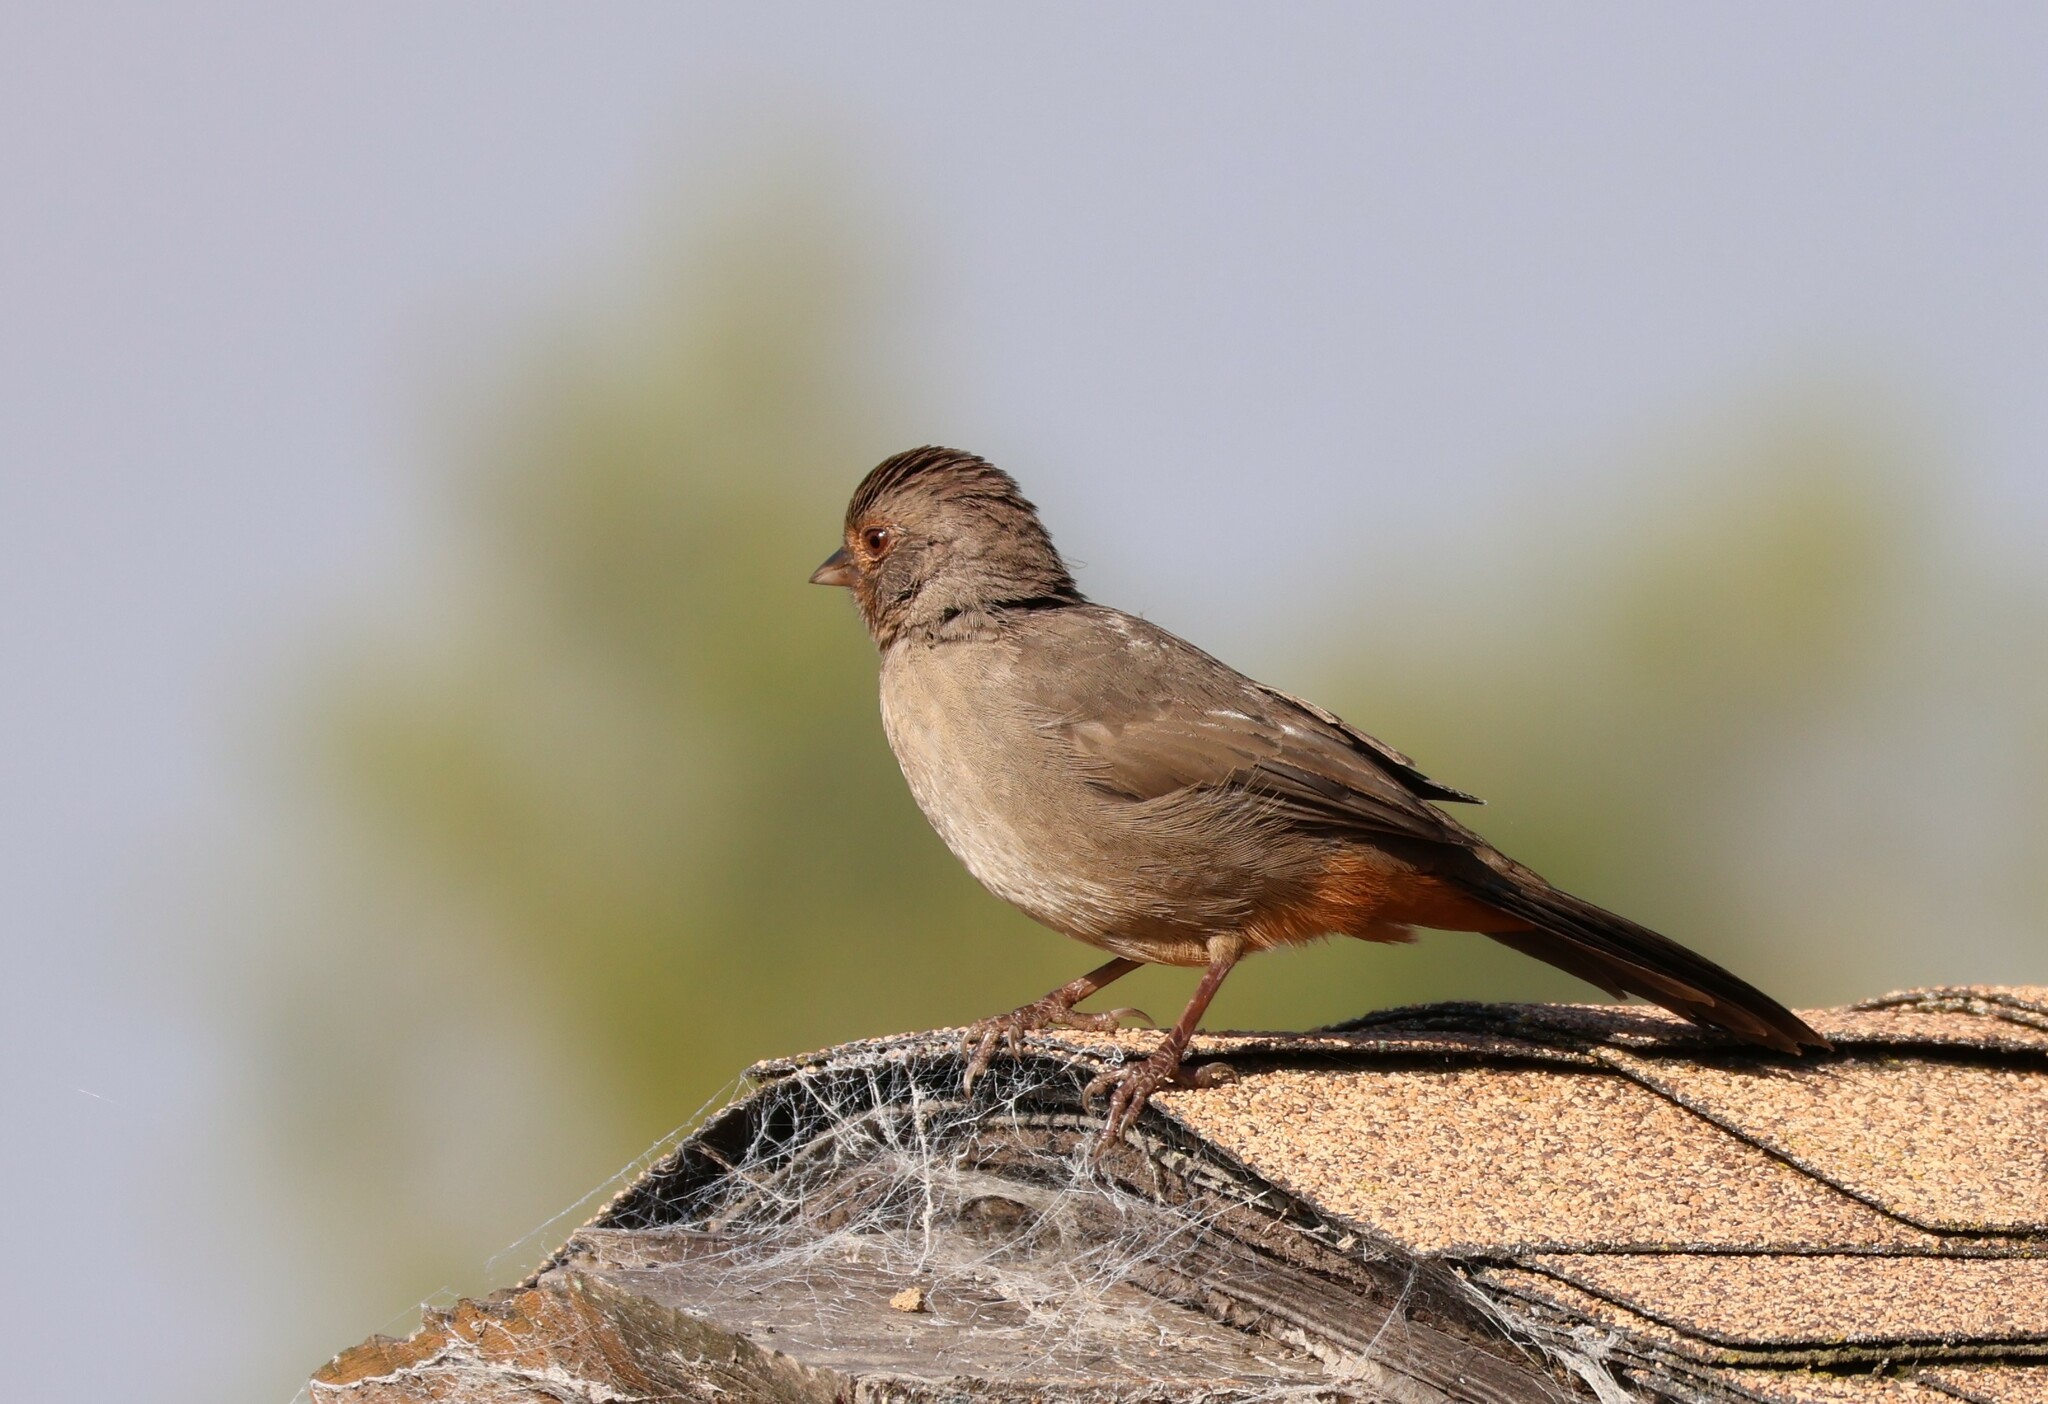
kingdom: Animalia
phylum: Chordata
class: Aves
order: Passeriformes
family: Passerellidae
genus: Melozone
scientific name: Melozone crissalis
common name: California towhee
